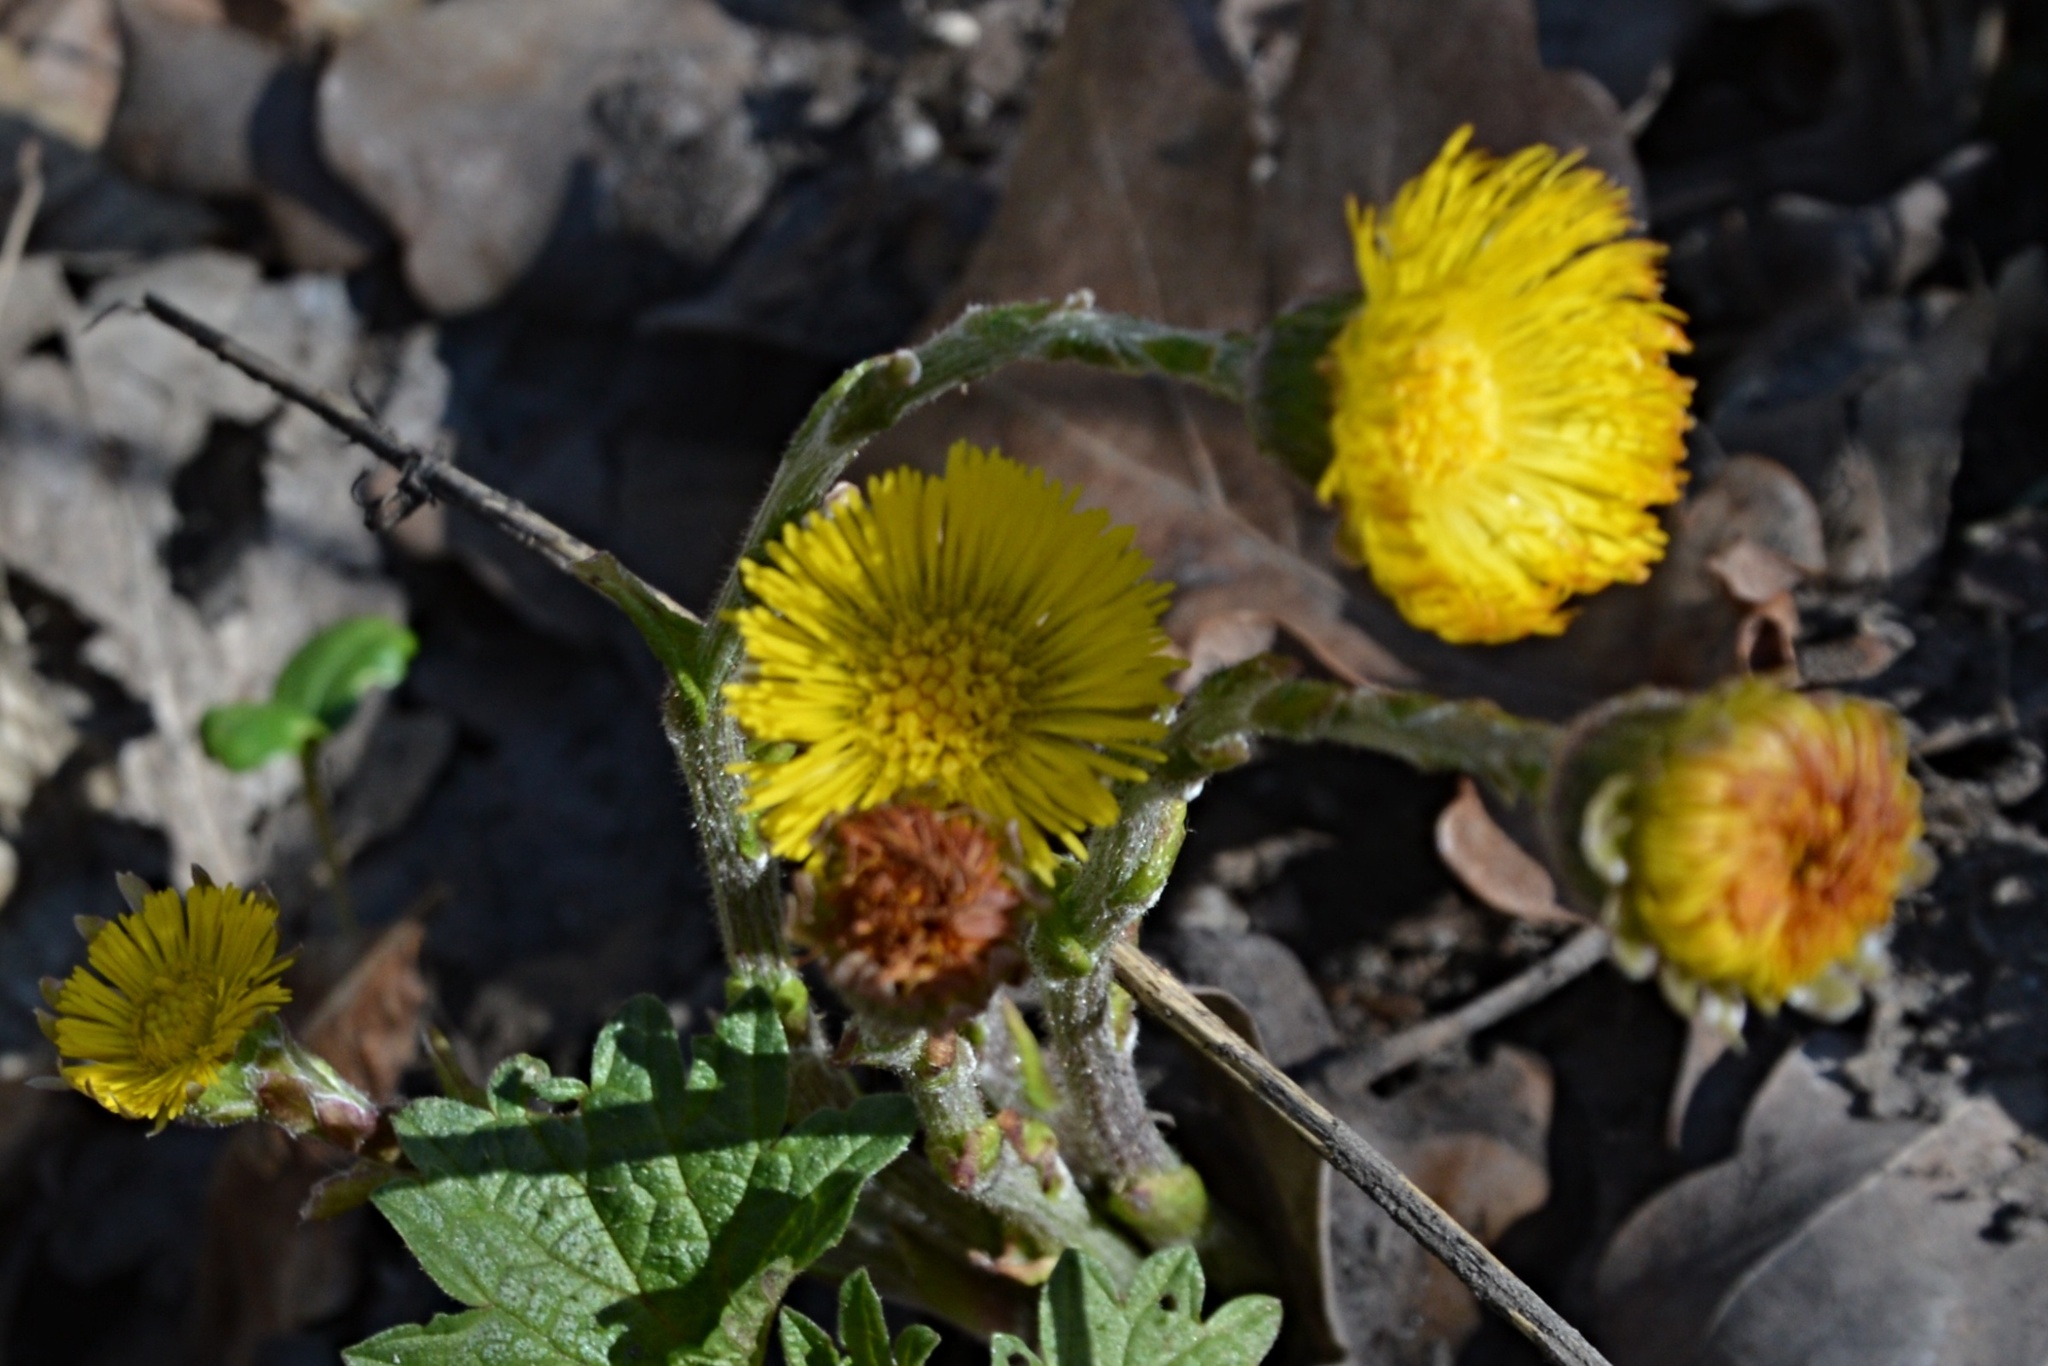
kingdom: Plantae
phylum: Tracheophyta
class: Magnoliopsida
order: Asterales
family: Asteraceae
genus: Tussilago
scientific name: Tussilago farfara
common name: Coltsfoot
